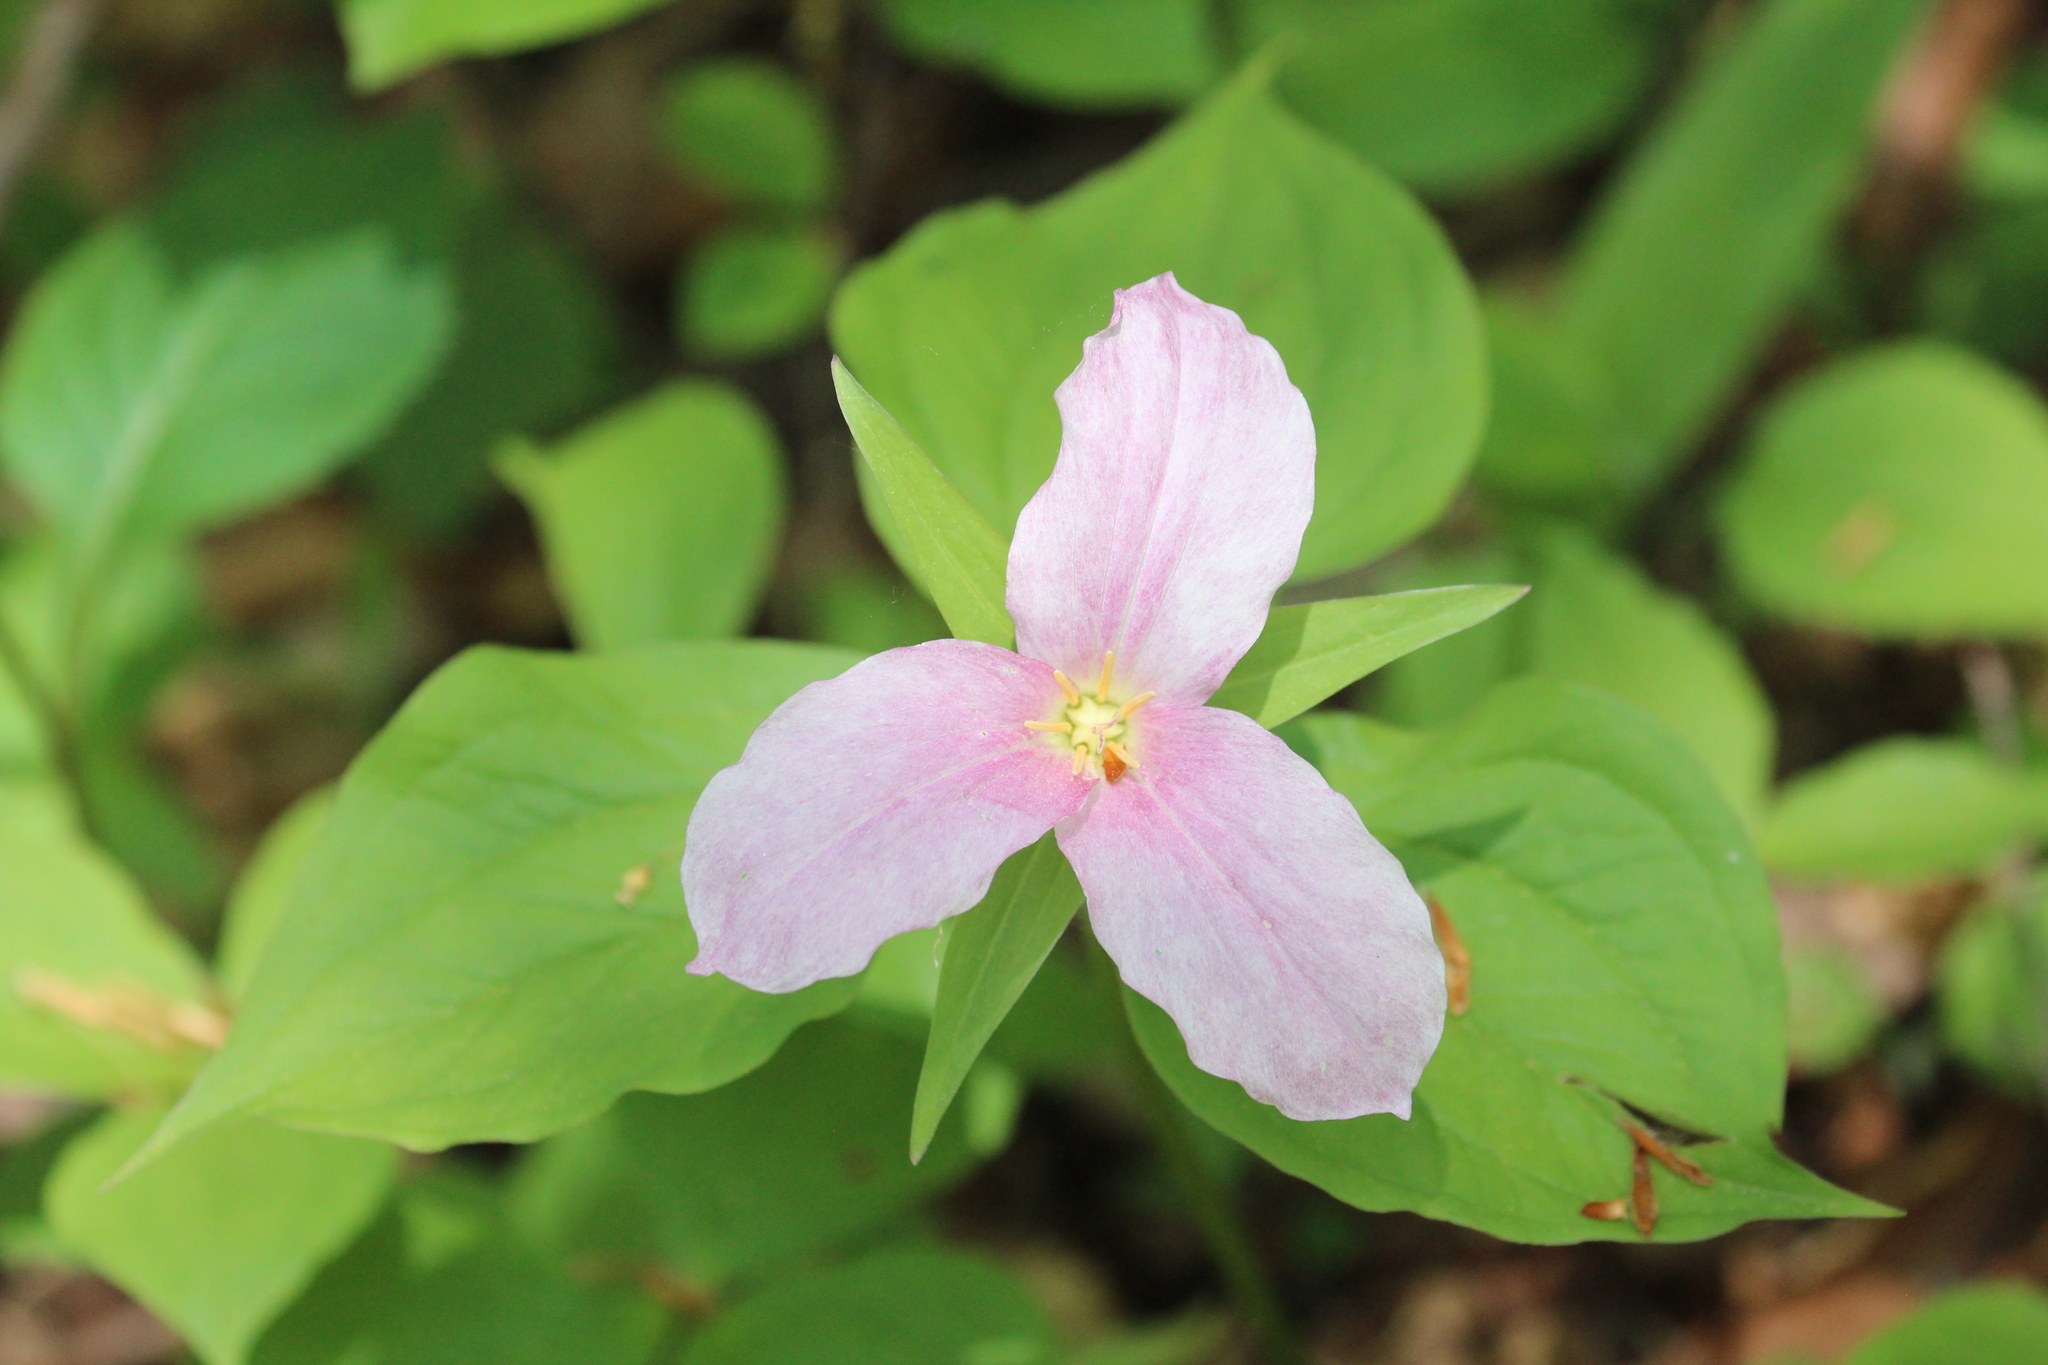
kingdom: Plantae
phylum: Tracheophyta
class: Liliopsida
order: Liliales
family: Melanthiaceae
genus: Trillium
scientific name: Trillium grandiflorum
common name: Great white trillium
